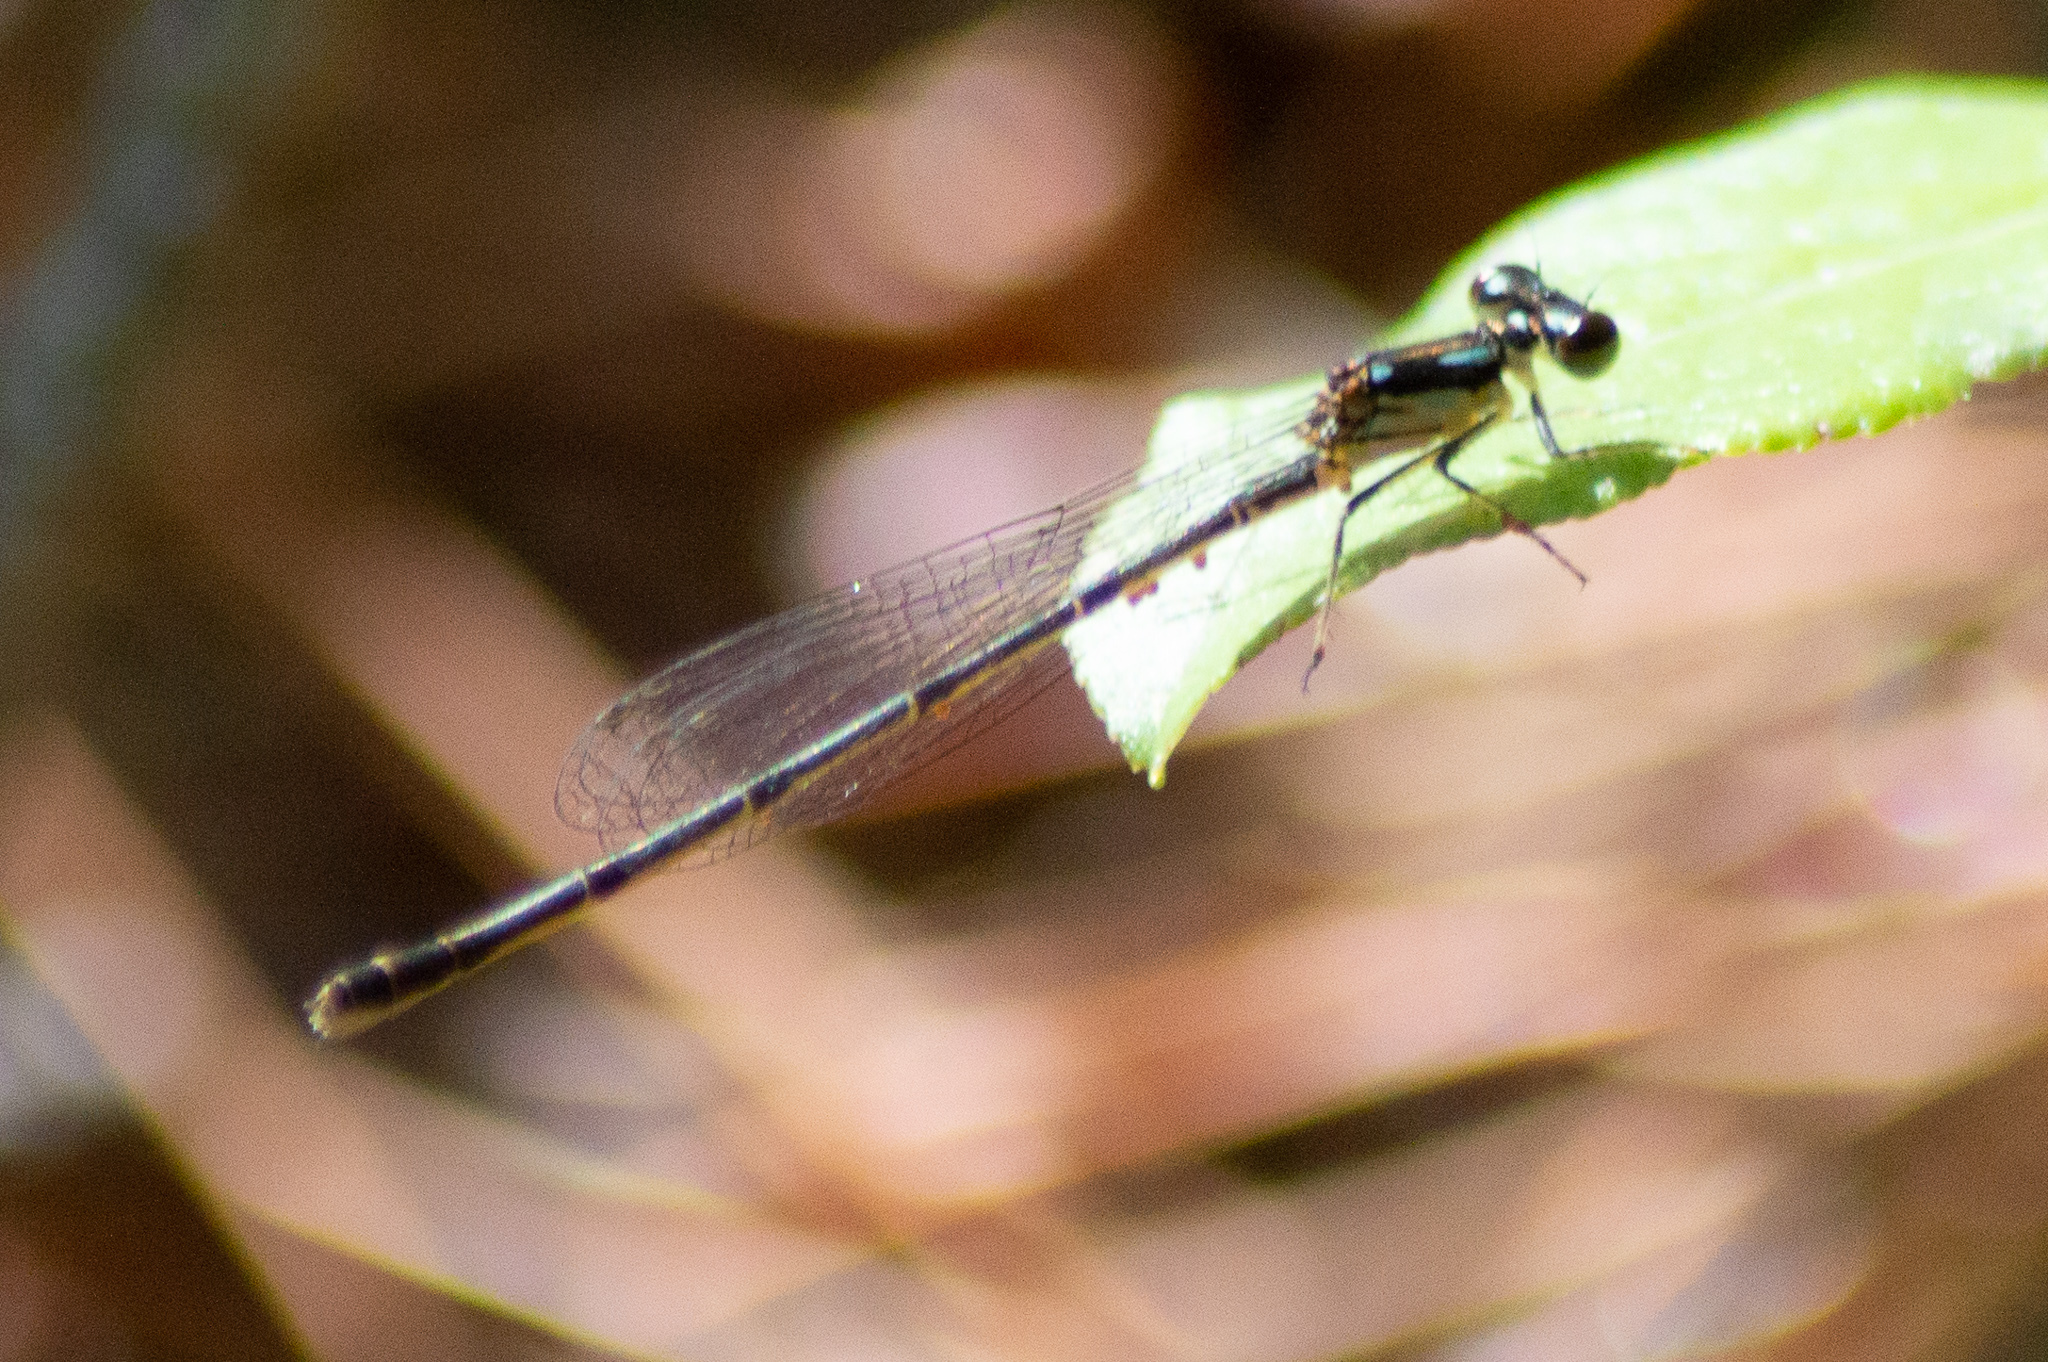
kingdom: Animalia
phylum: Arthropoda
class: Insecta
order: Odonata
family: Coenagrionidae
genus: Ischnura
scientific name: Ischnura posita
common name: Fragile forktail
